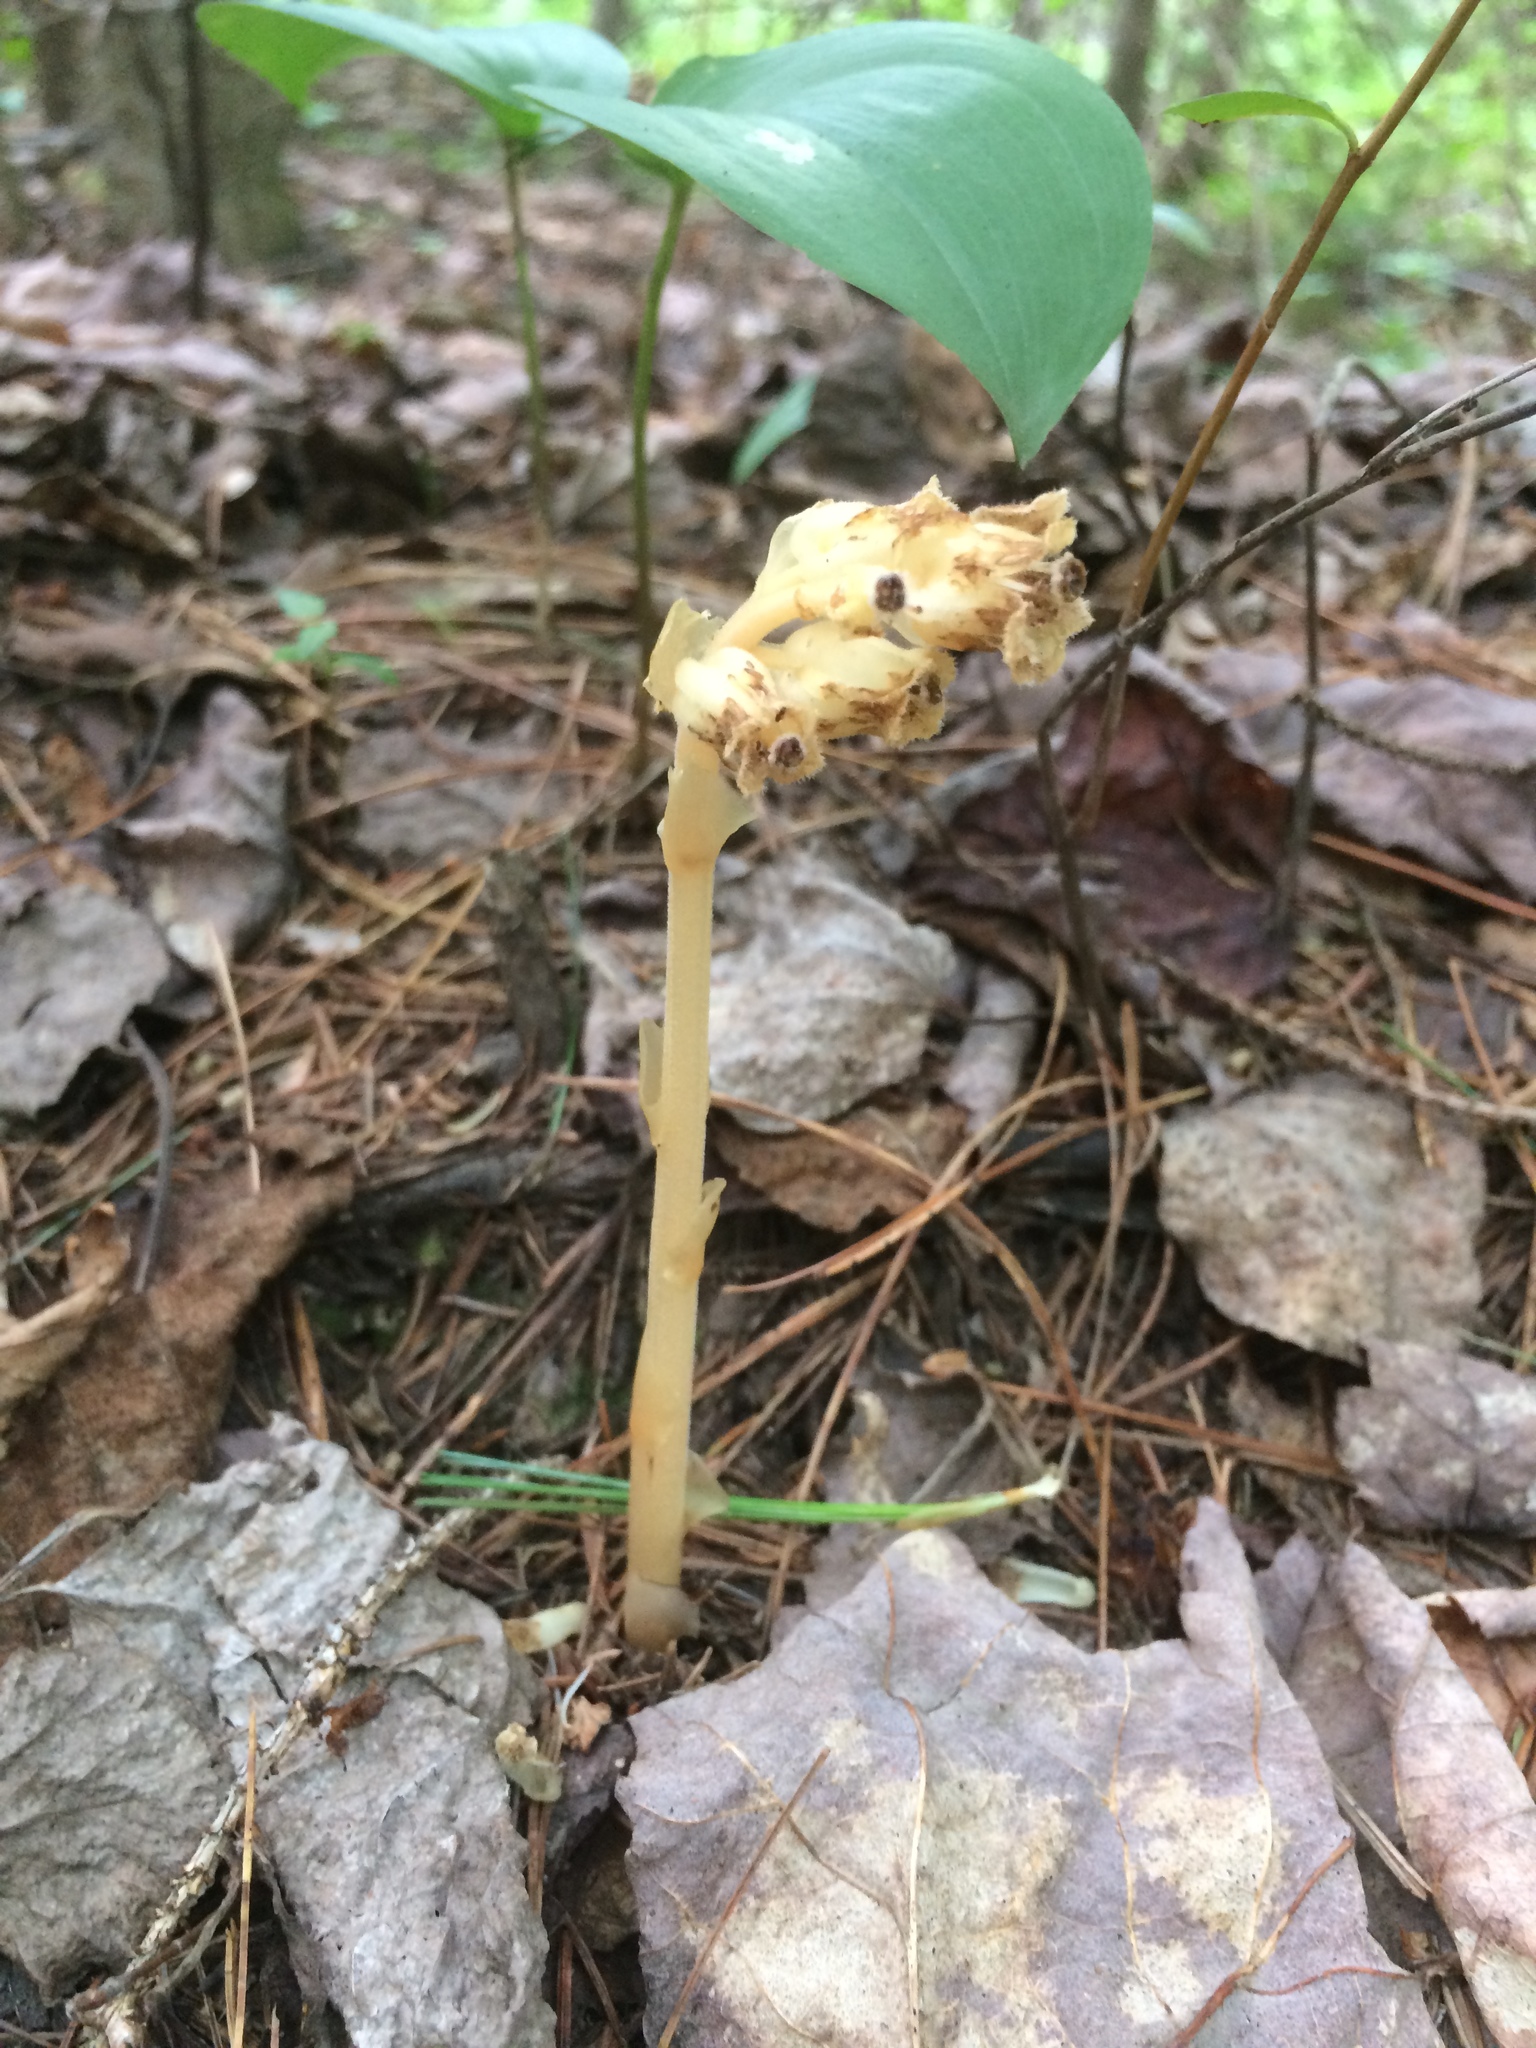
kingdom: Plantae
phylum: Tracheophyta
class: Magnoliopsida
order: Ericales
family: Ericaceae
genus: Hypopitys
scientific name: Hypopitys monotropa
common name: Yellow bird's-nest
